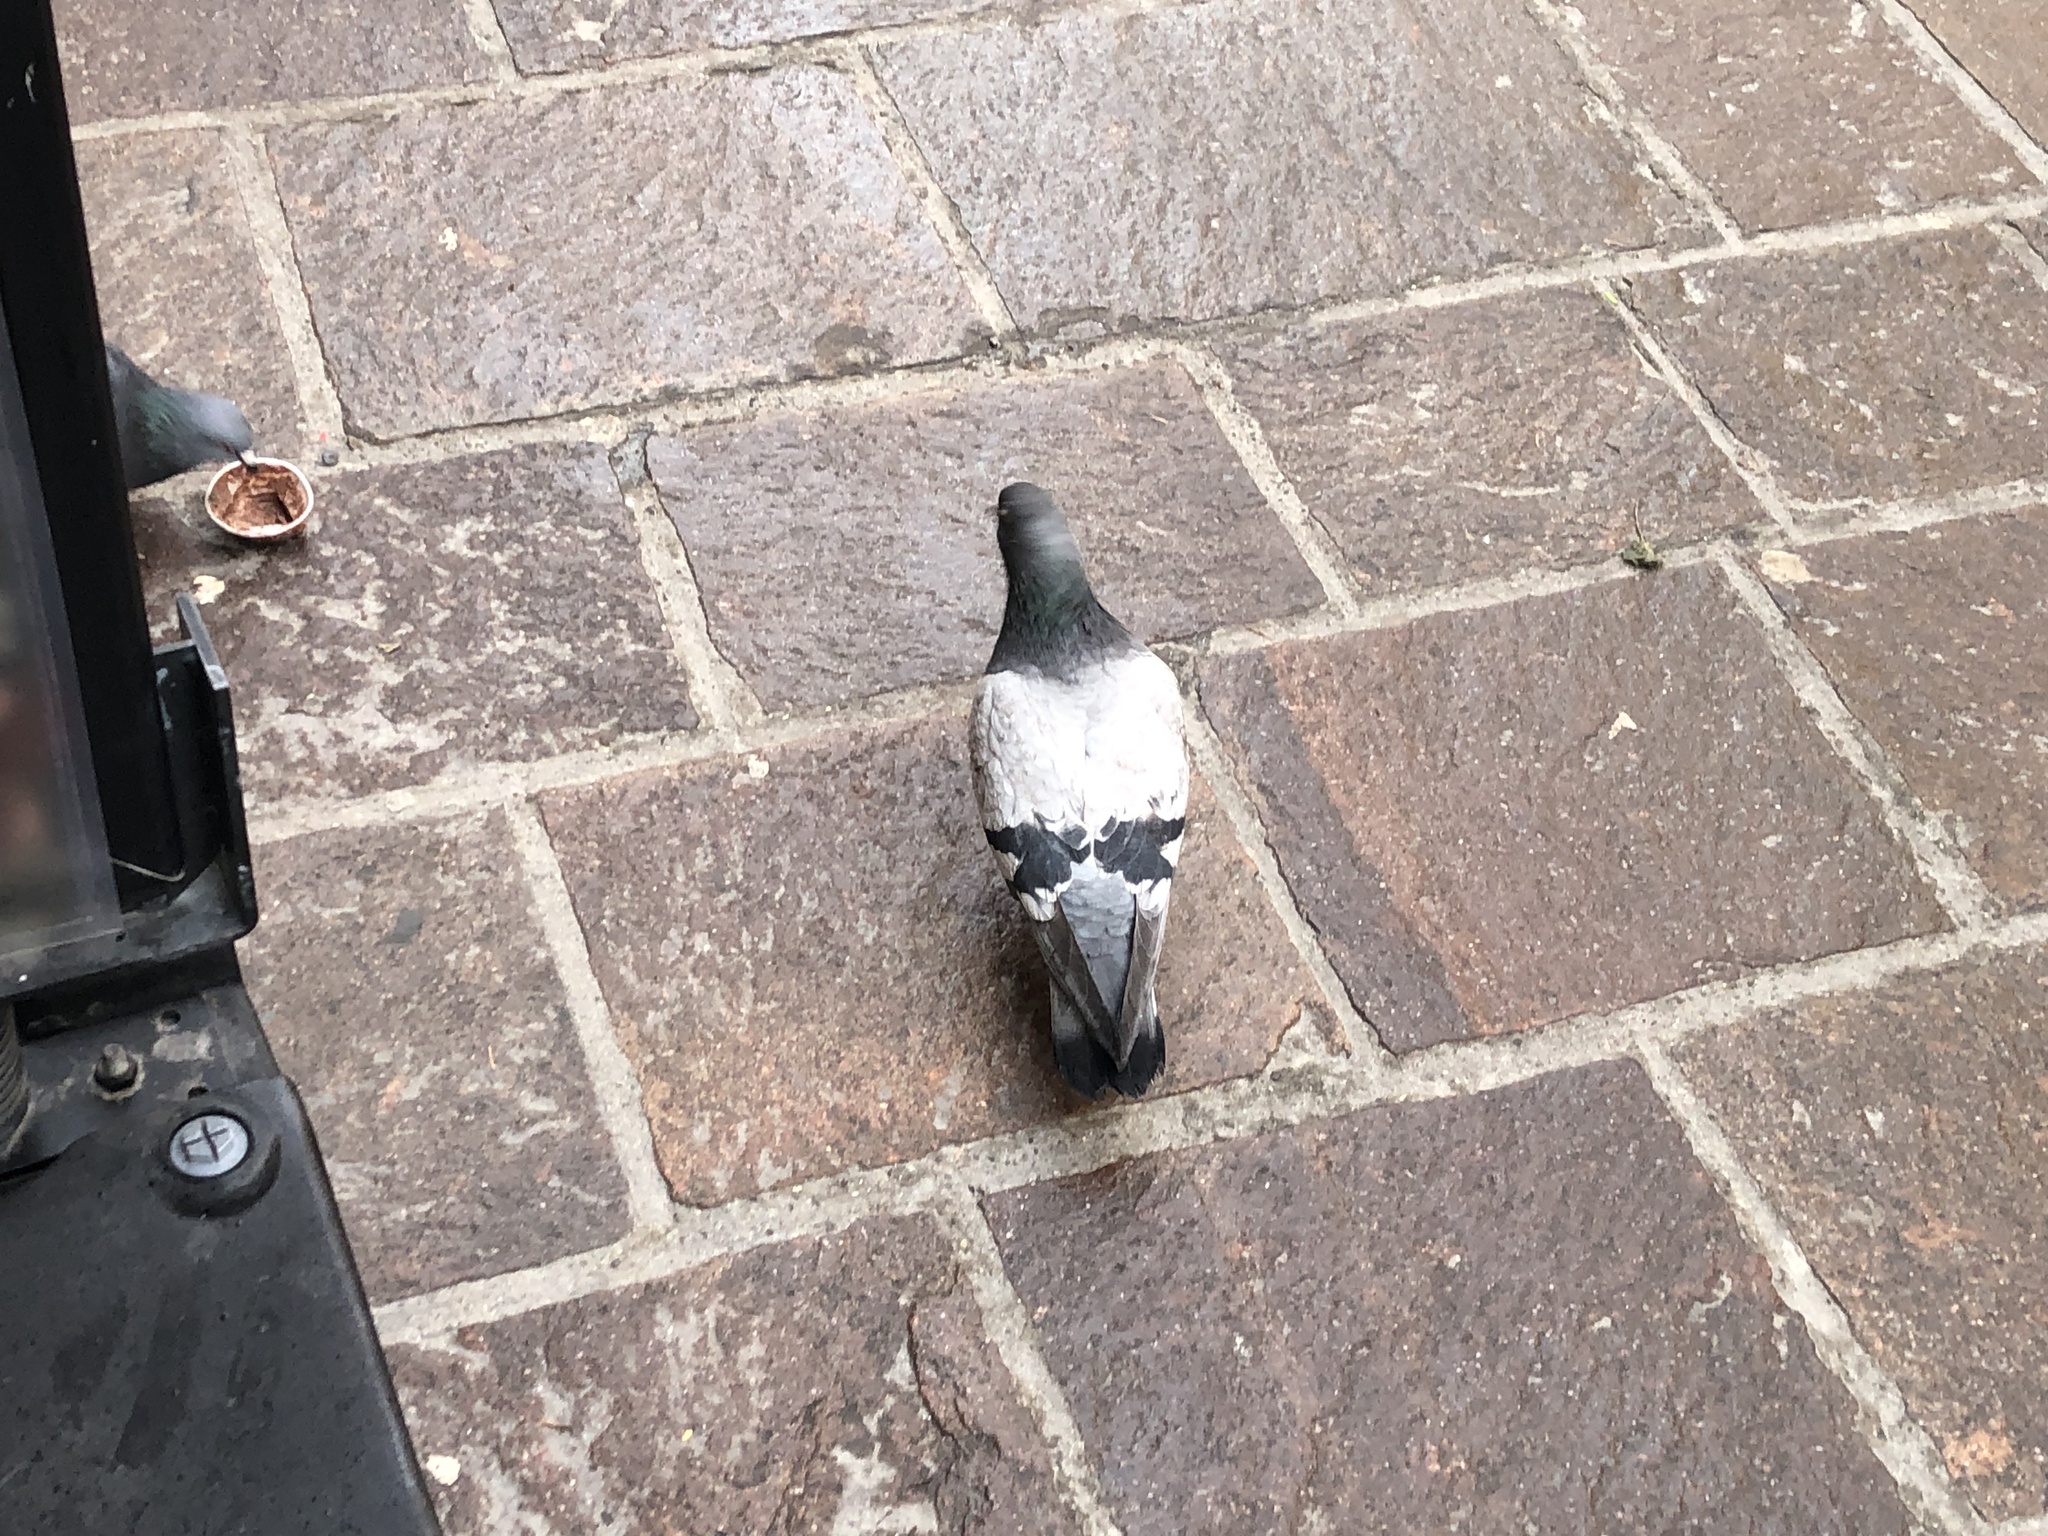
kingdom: Animalia
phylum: Chordata
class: Aves
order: Columbiformes
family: Columbidae
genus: Columba
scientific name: Columba livia
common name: Rock pigeon
